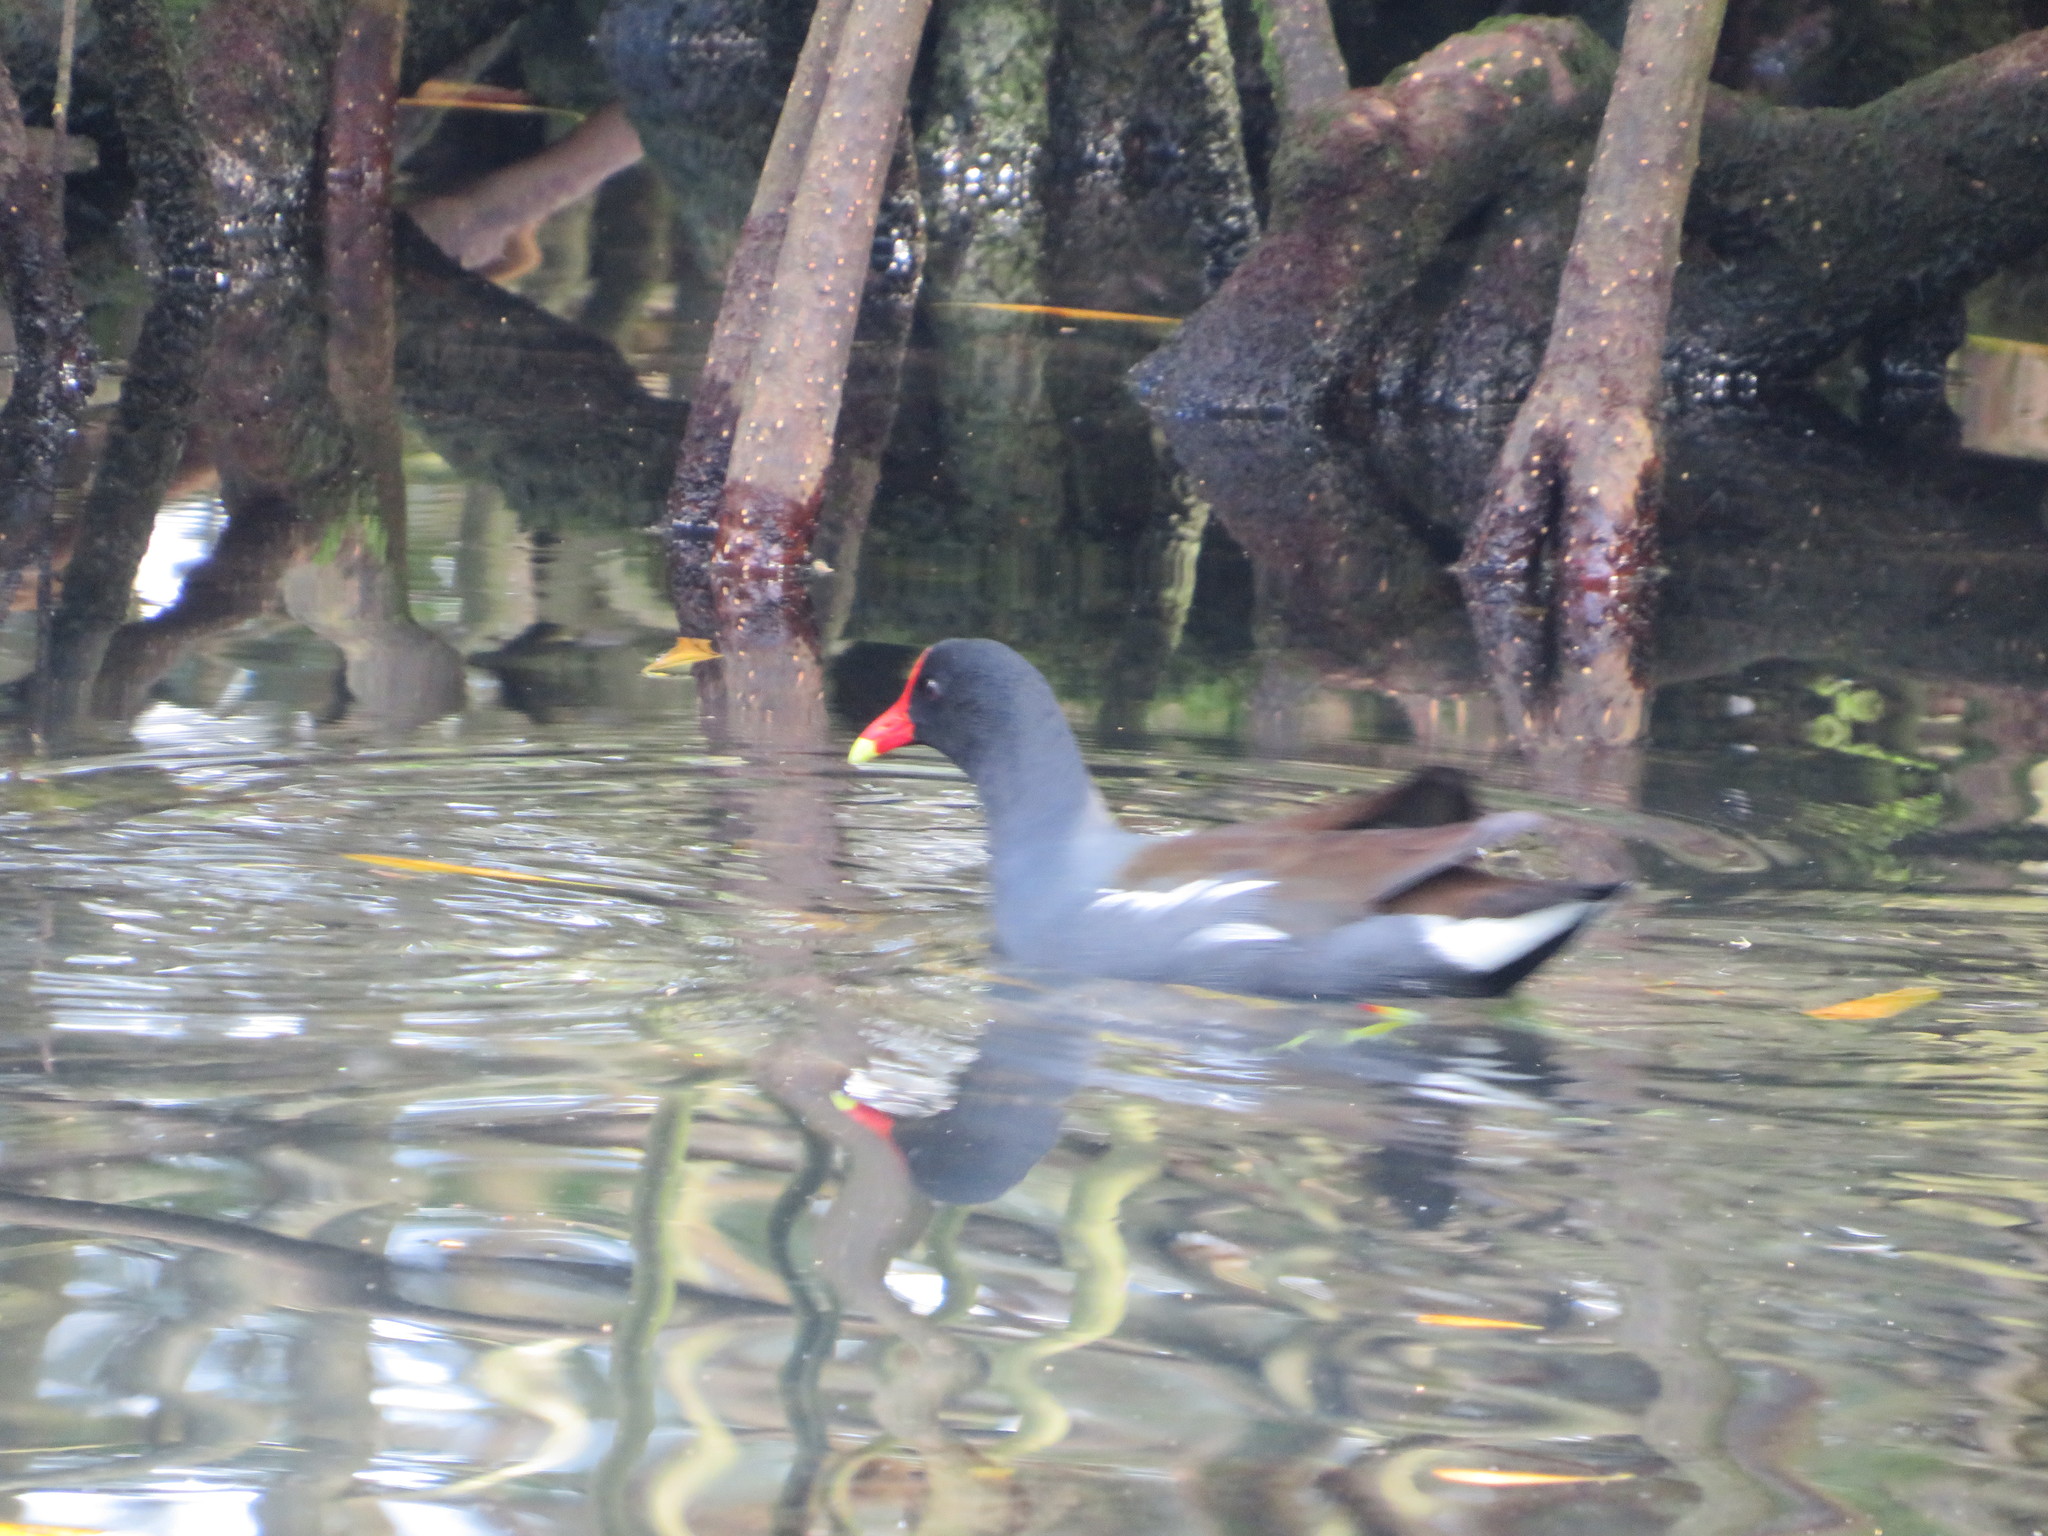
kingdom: Animalia
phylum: Chordata
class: Aves
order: Gruiformes
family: Rallidae
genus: Gallinula
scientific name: Gallinula chloropus
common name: Common moorhen
